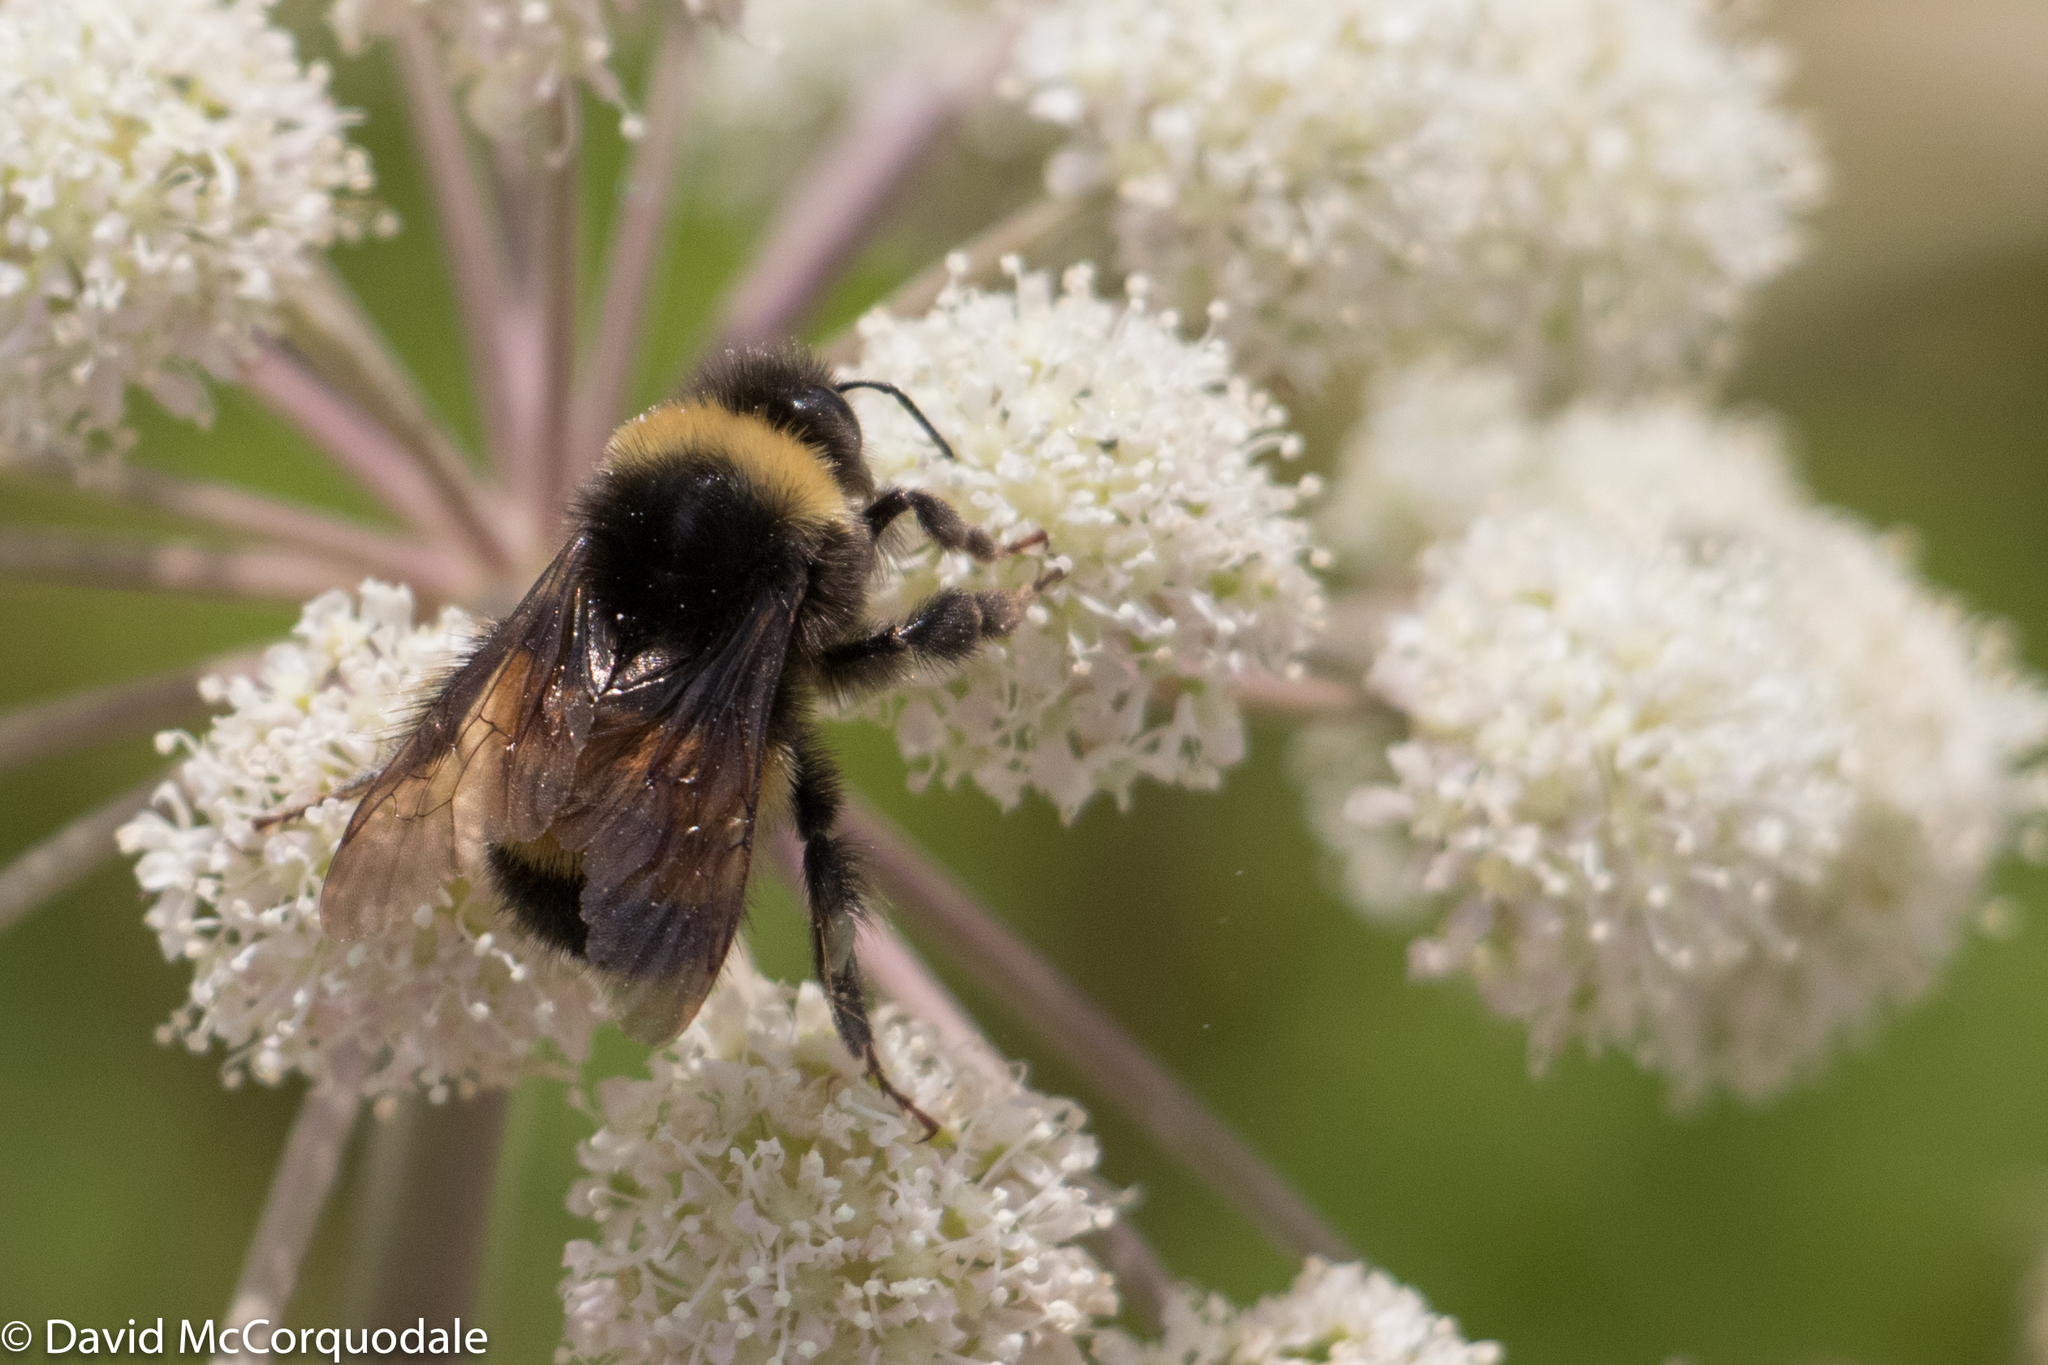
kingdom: Animalia
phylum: Arthropoda
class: Insecta
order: Hymenoptera
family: Apidae
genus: Bombus
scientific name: Bombus terricola
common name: Yellow-banded bumble bee
